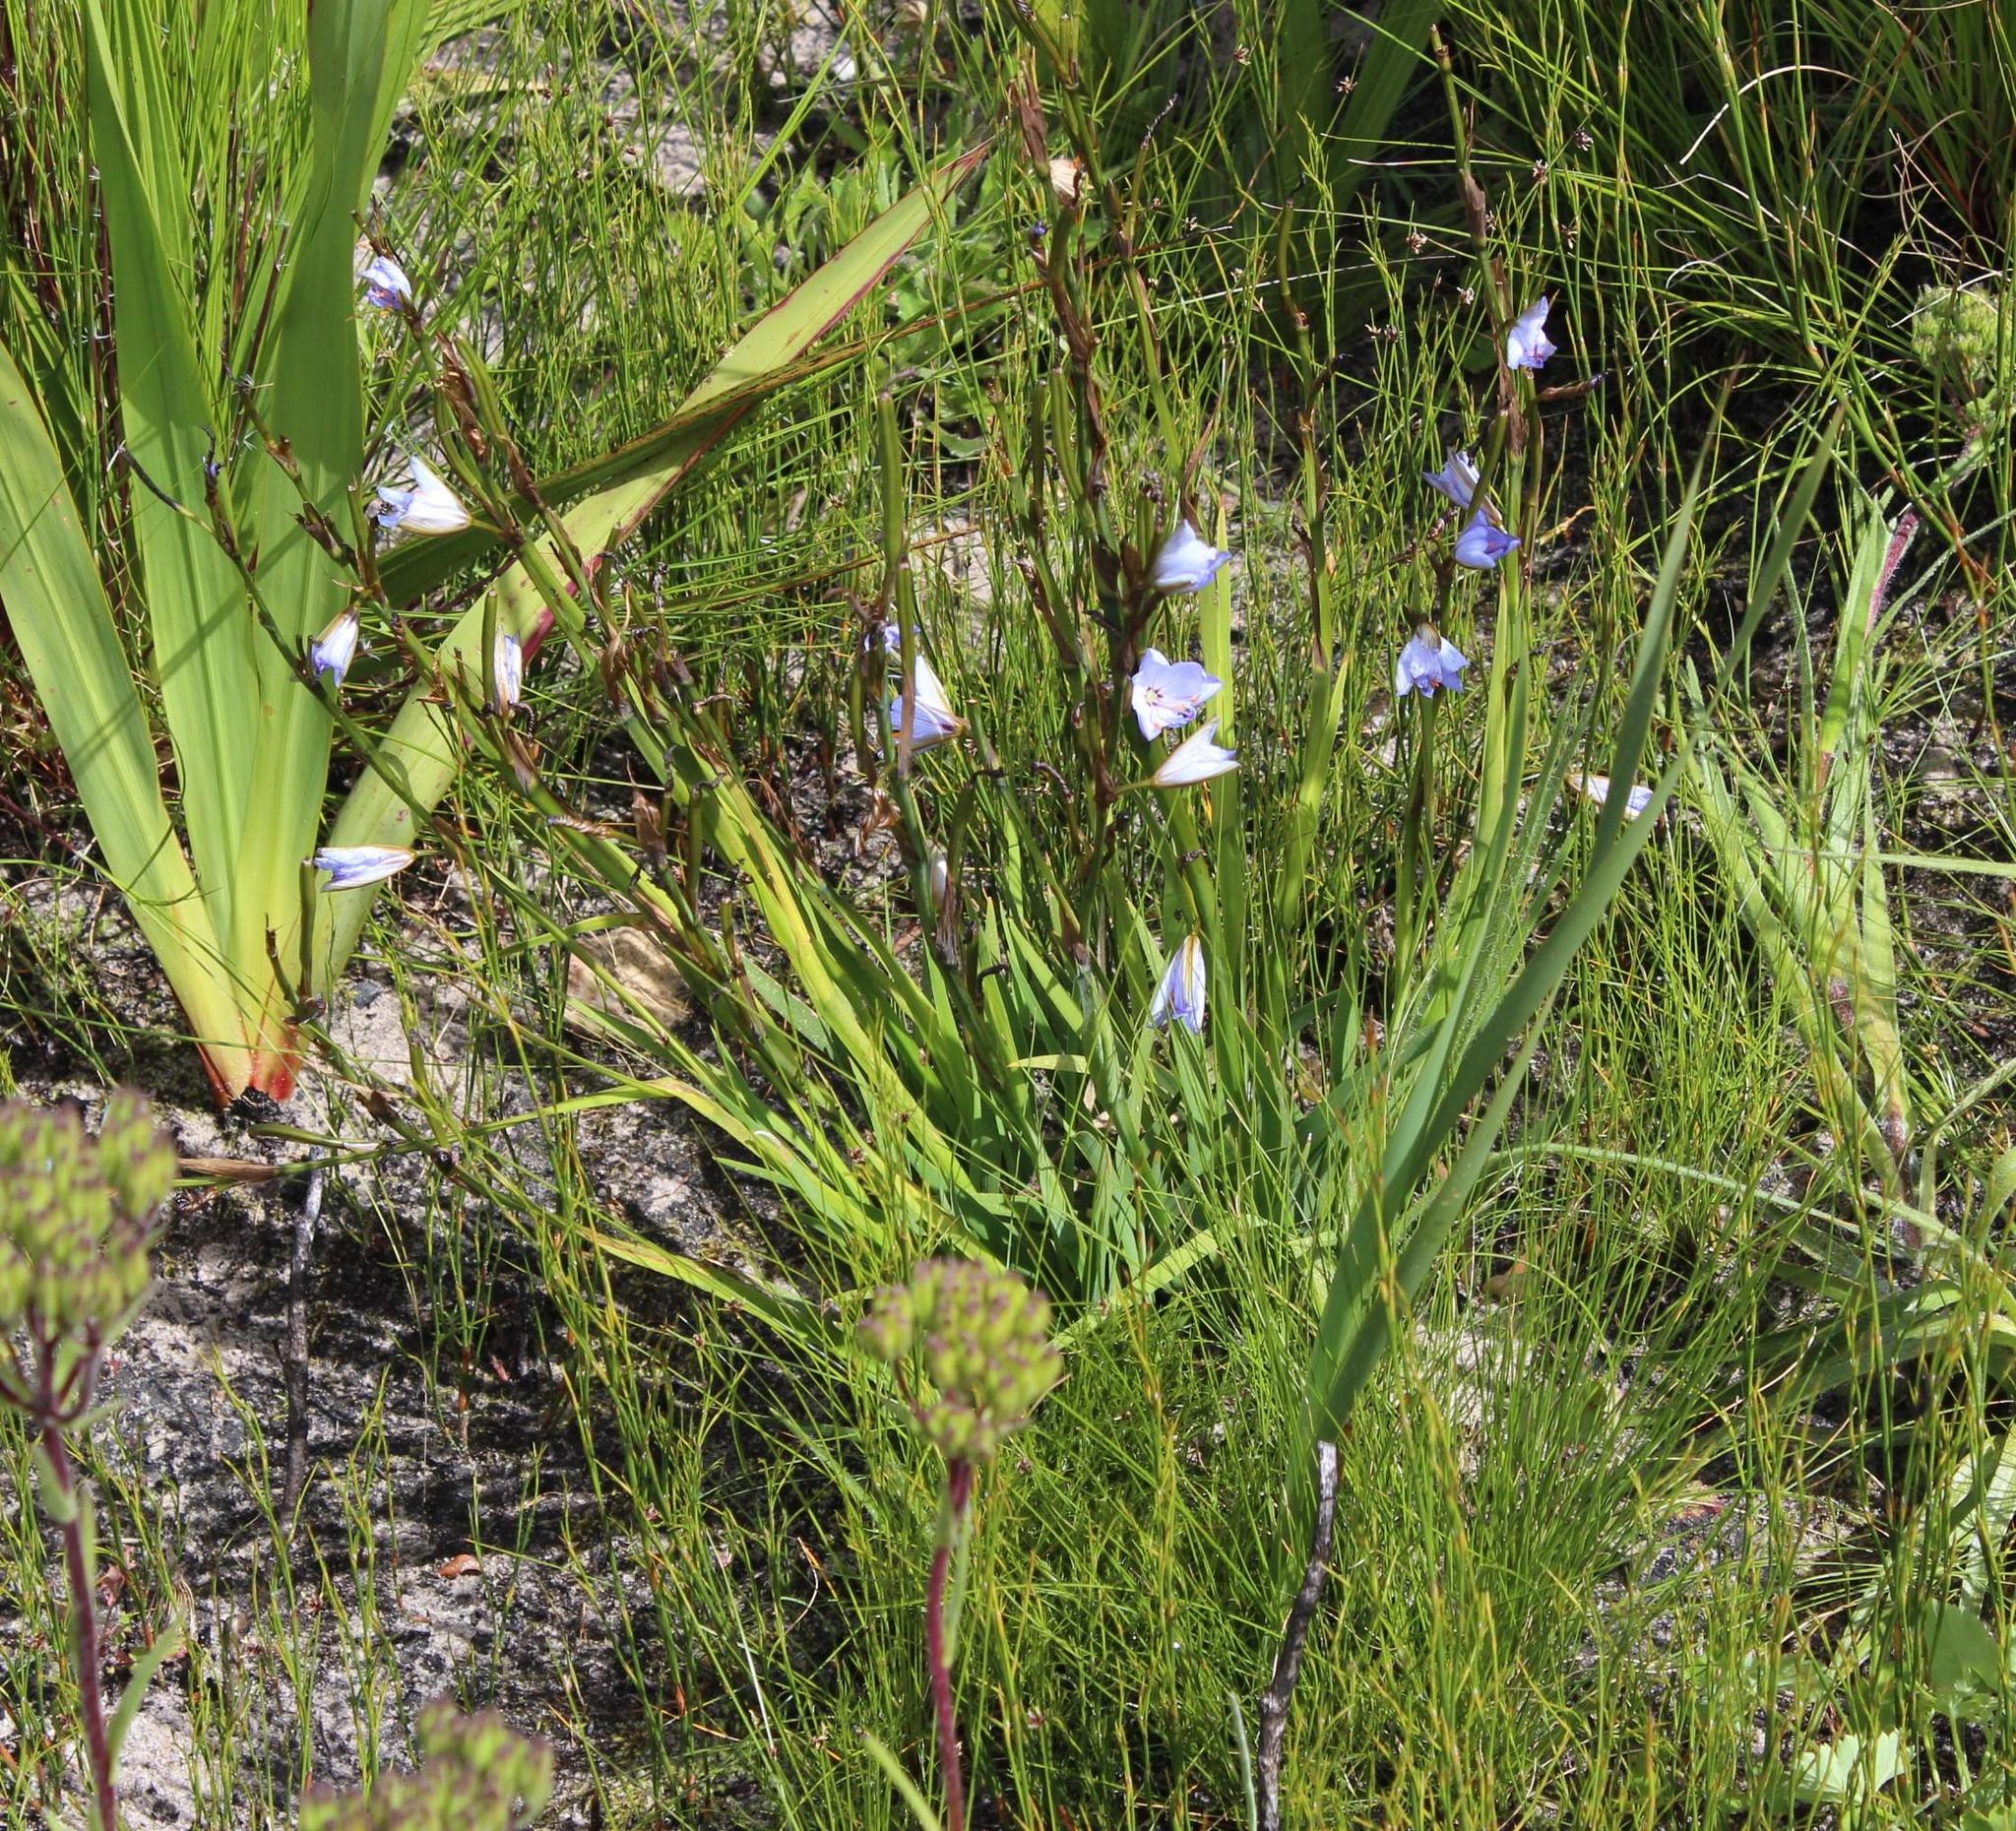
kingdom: Plantae
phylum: Tracheophyta
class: Liliopsida
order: Asparagales
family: Iridaceae
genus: Aristea
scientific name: Aristea spiralis
